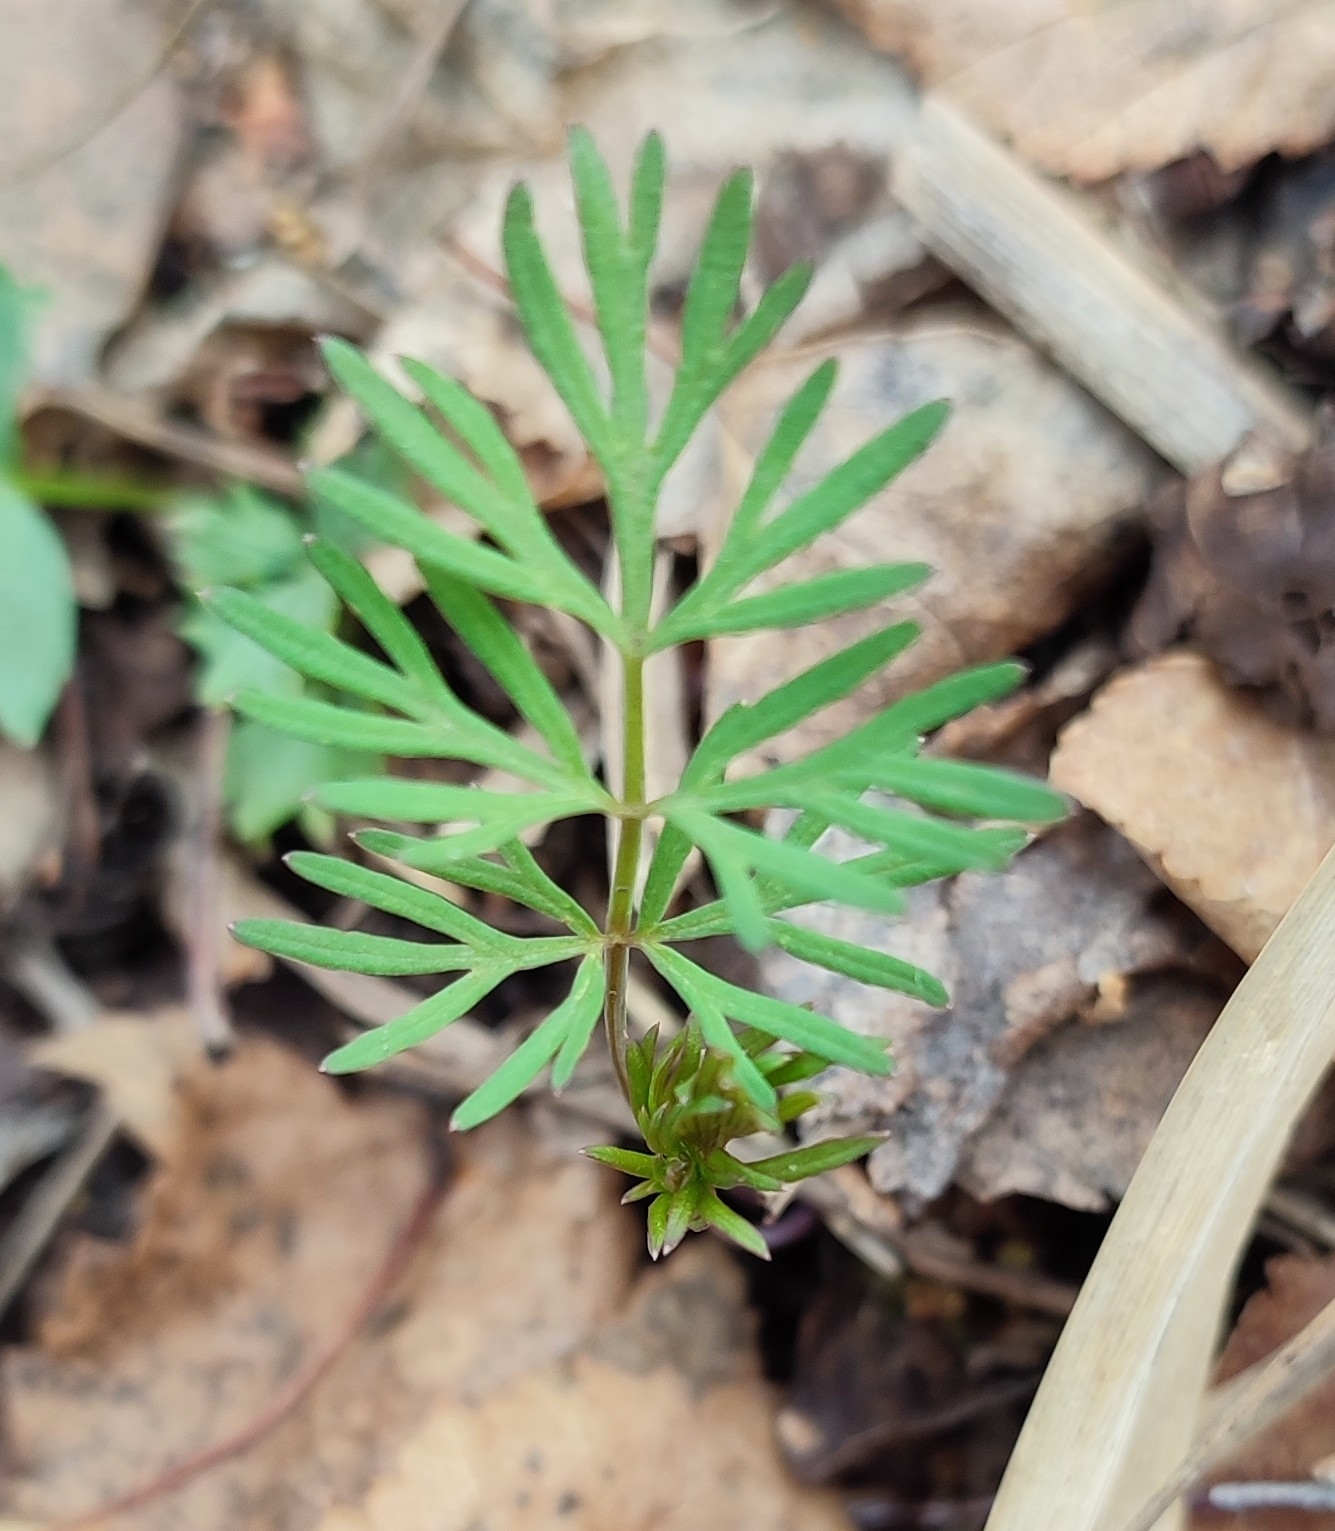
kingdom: Plantae
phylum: Tracheophyta
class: Magnoliopsida
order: Apiales
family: Apiaceae
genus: Kadenia
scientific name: Kadenia dubia
